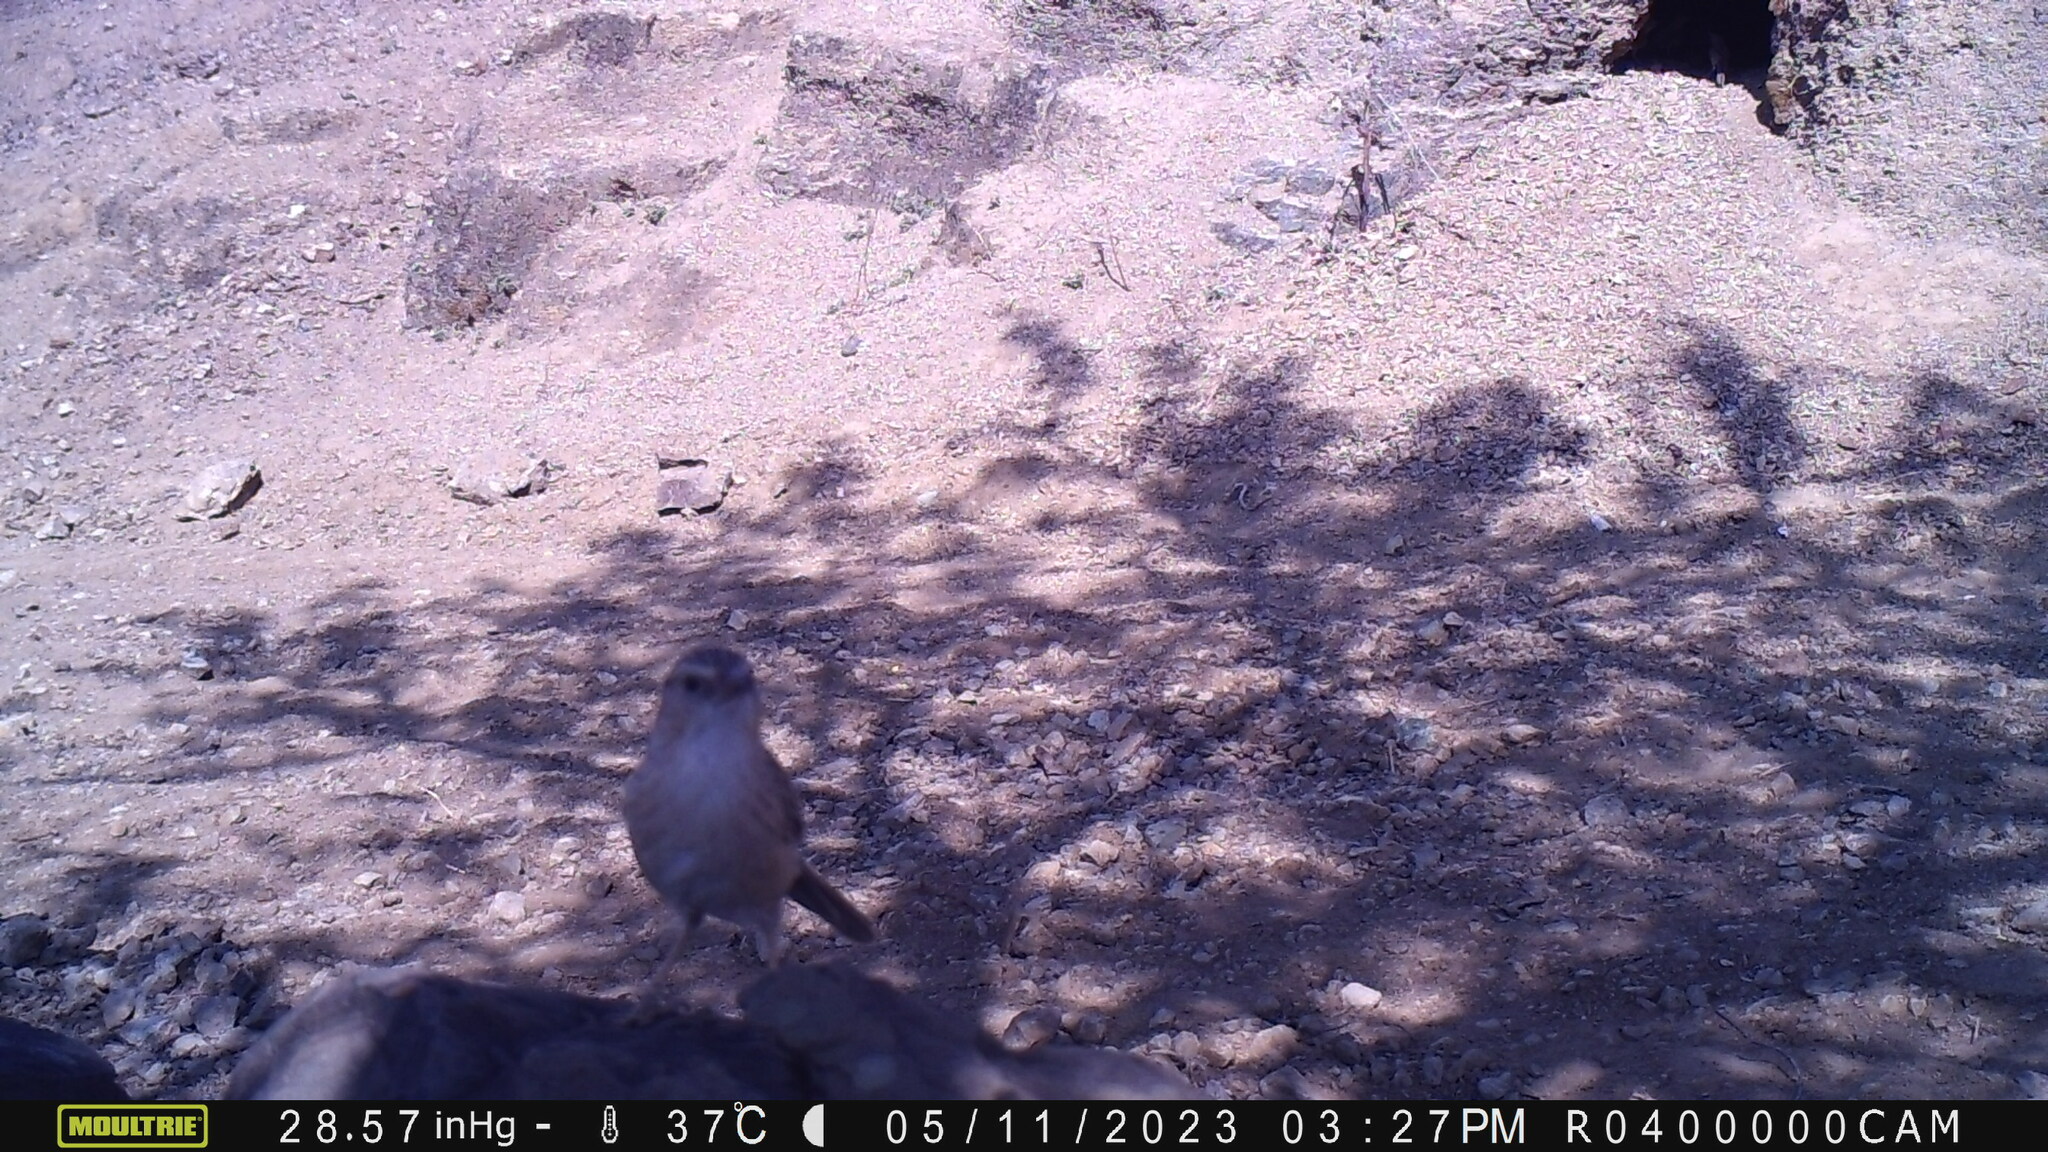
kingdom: Animalia
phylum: Chordata
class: Aves
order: Passeriformes
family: Leiothrichidae
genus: Turdoides
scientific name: Turdoides caudata
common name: Common babbler
